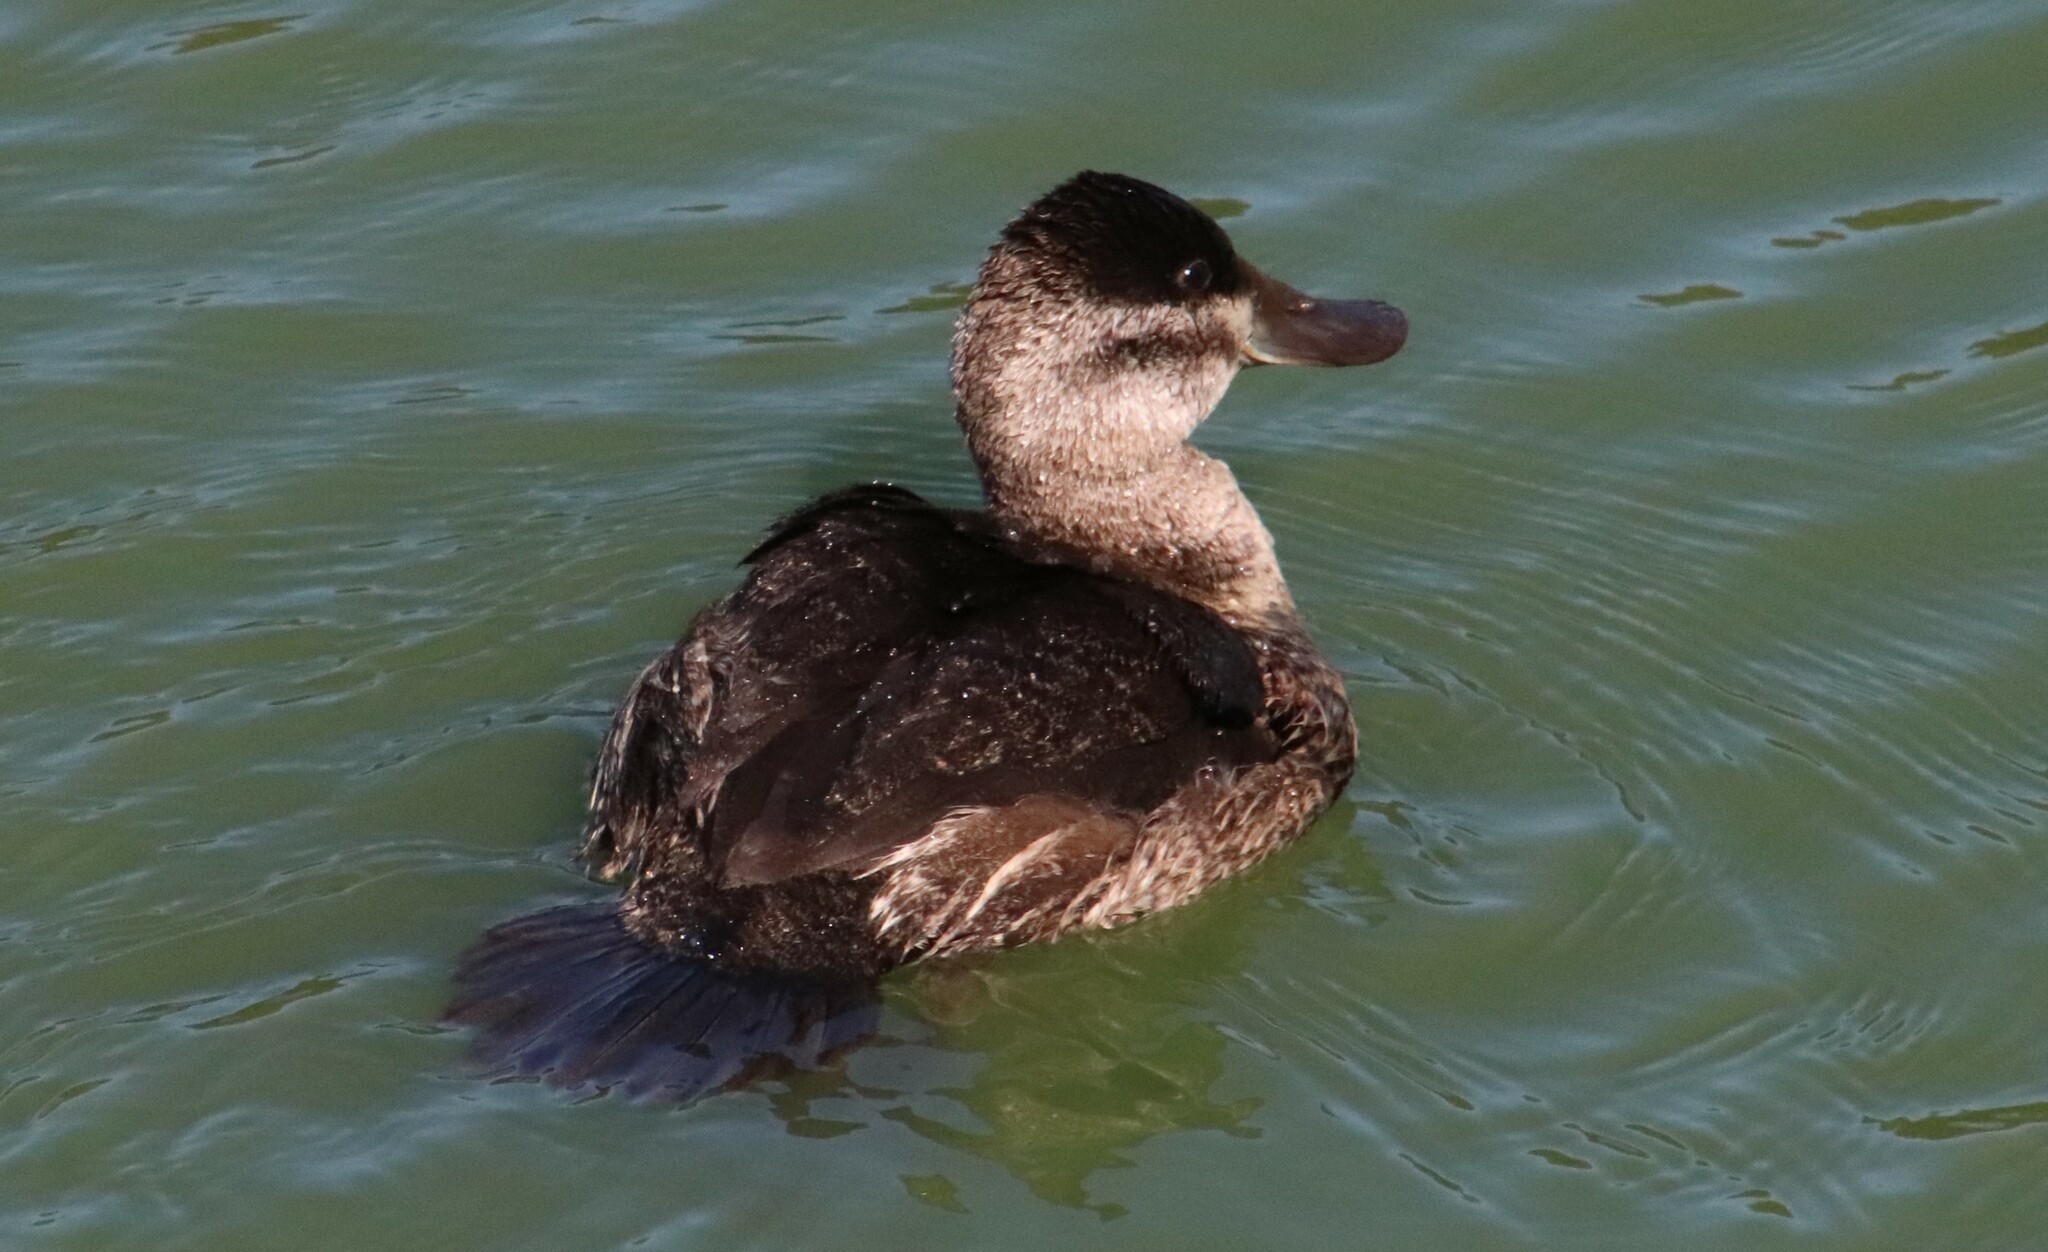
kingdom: Animalia
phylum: Chordata
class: Aves
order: Anseriformes
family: Anatidae
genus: Oxyura
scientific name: Oxyura jamaicensis
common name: Ruddy duck
